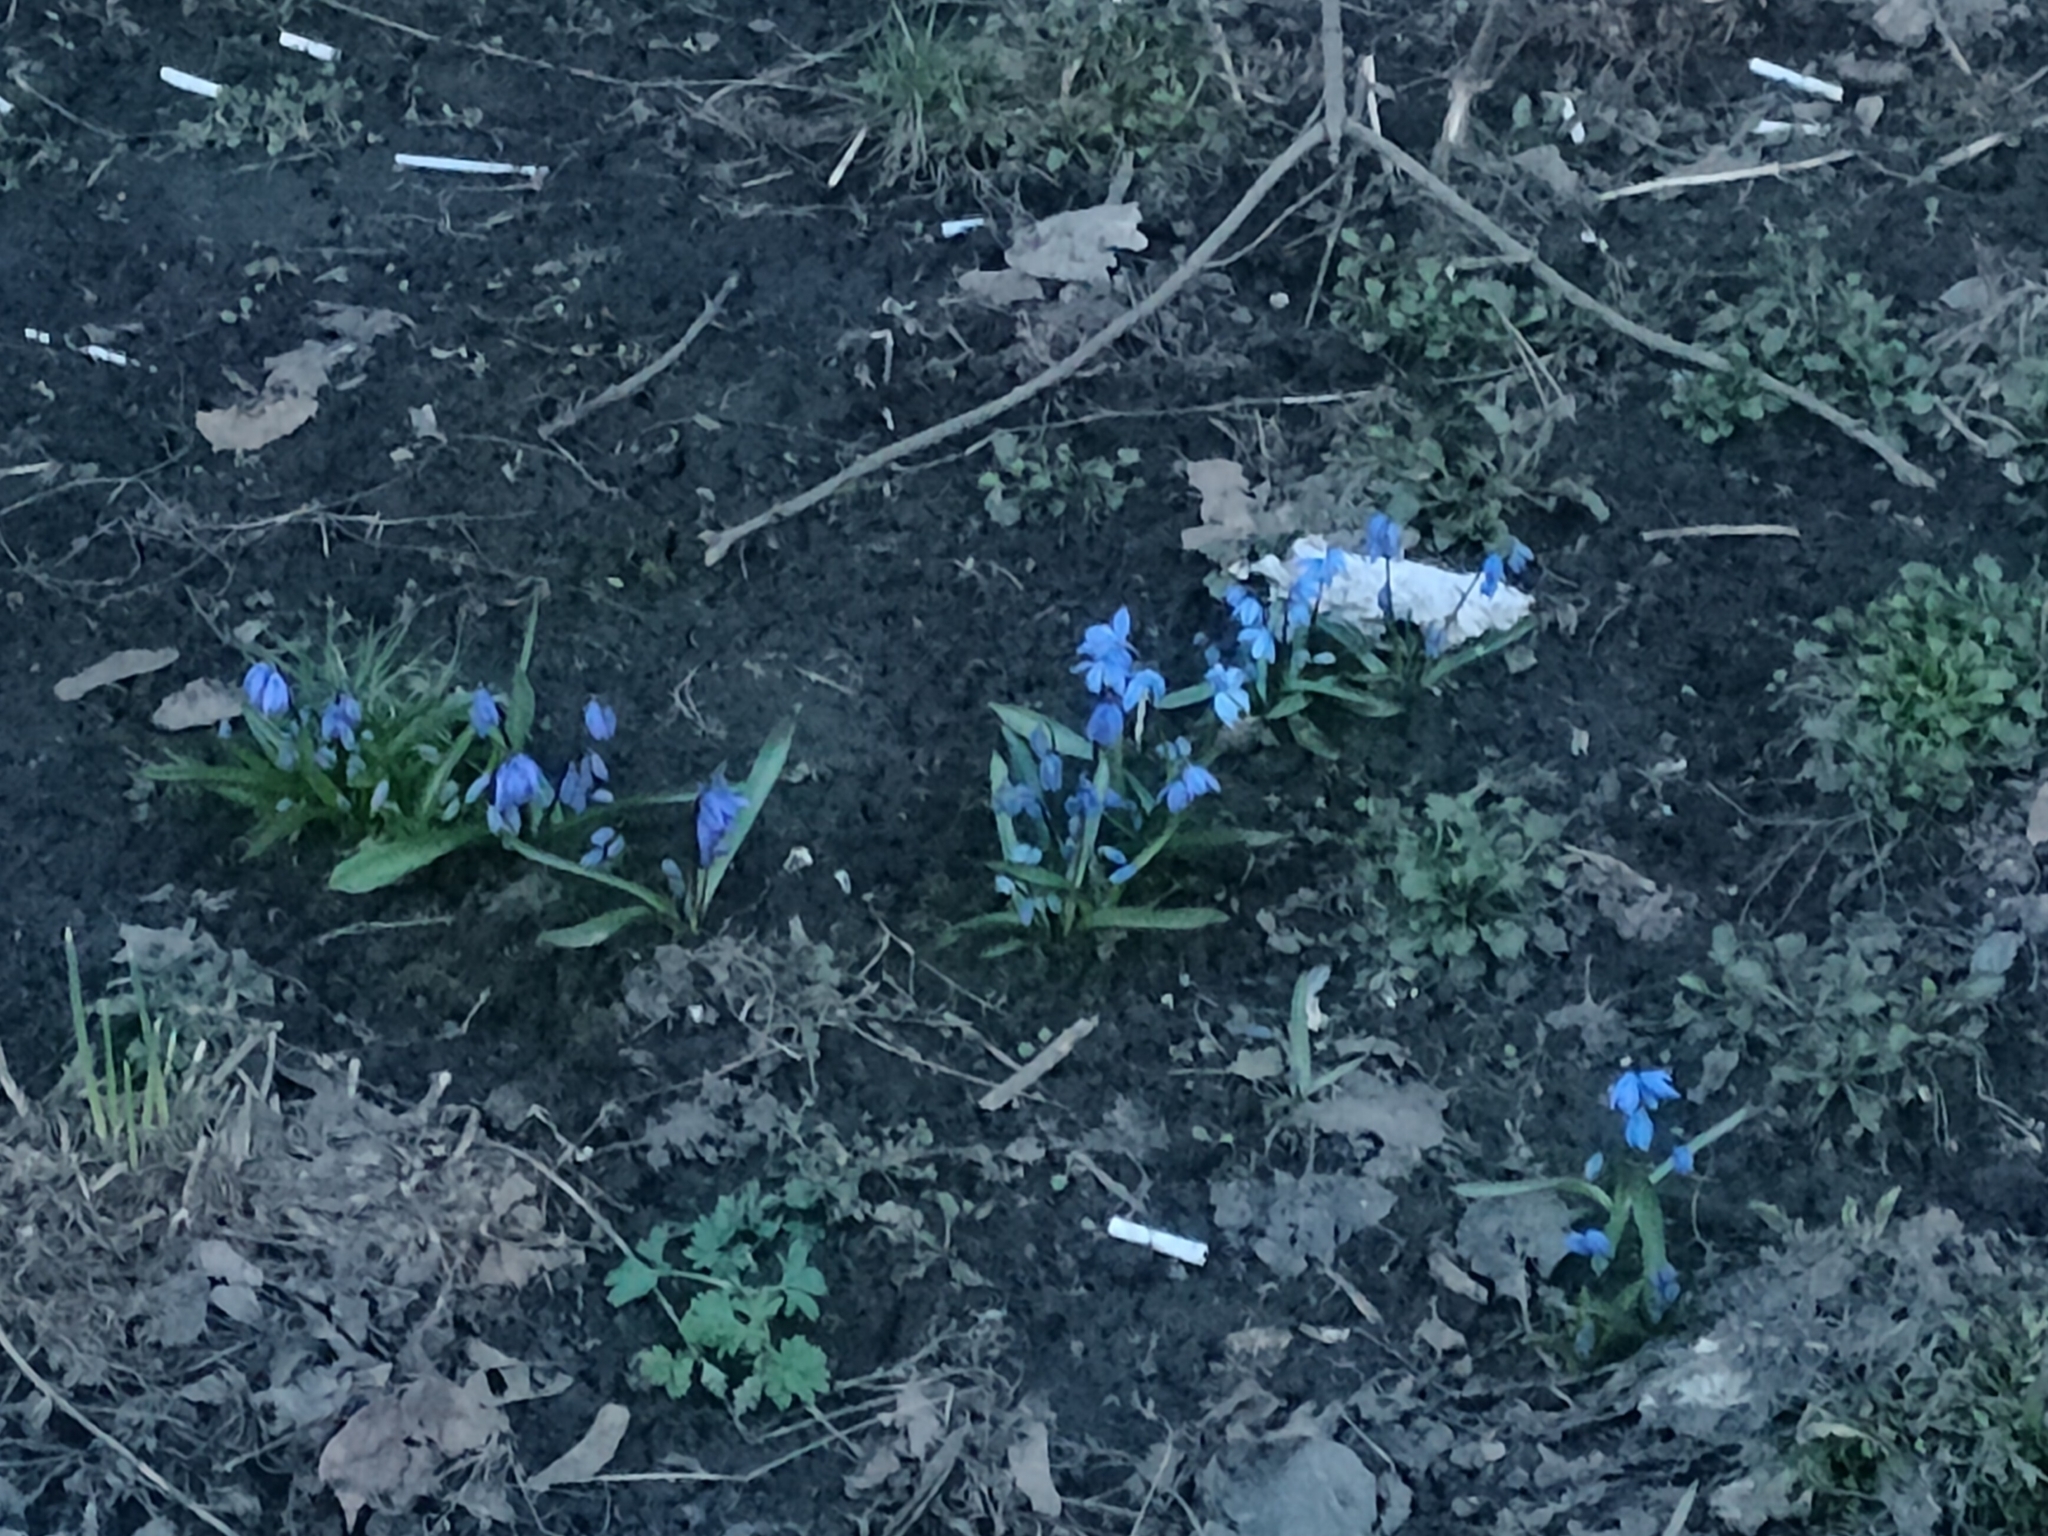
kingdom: Plantae
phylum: Tracheophyta
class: Liliopsida
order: Asparagales
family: Asparagaceae
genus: Scilla
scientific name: Scilla siberica
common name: Siberian squill
